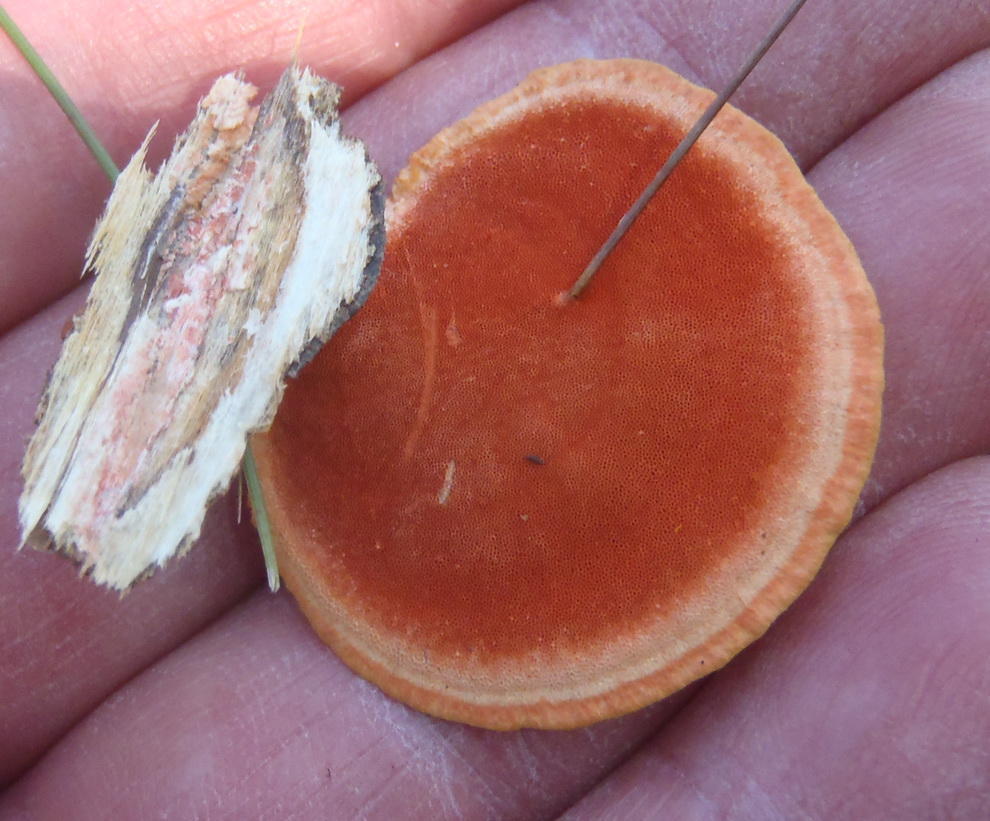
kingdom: Fungi
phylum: Basidiomycota
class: Agaricomycetes
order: Polyporales
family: Polyporaceae
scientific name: Polyporaceae
